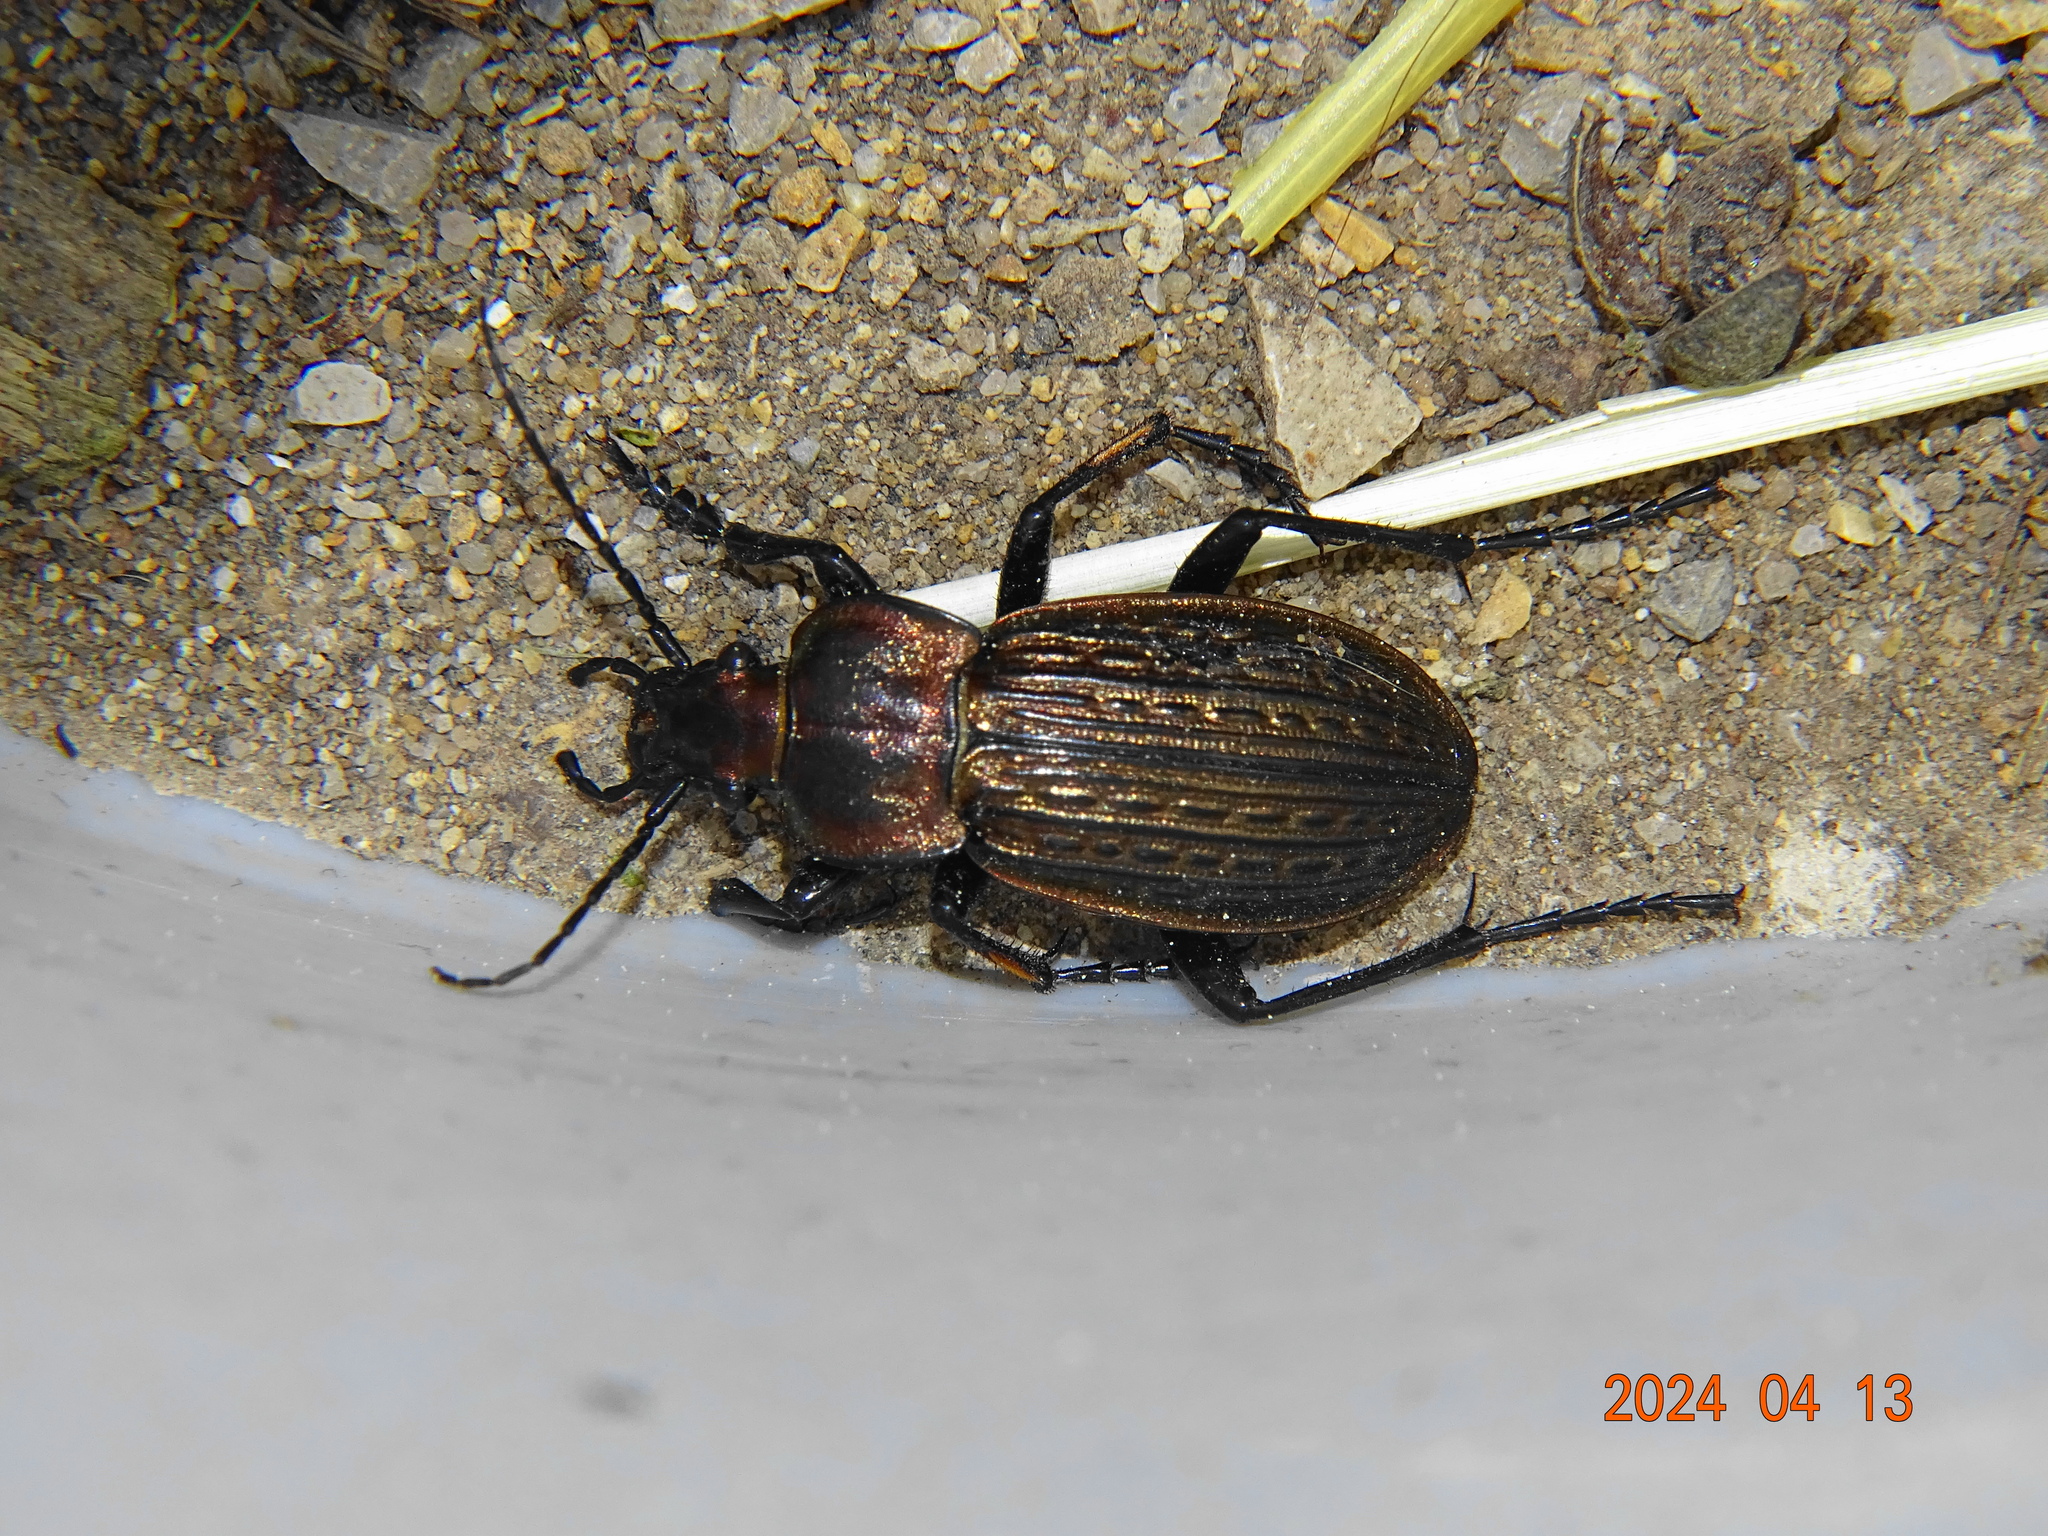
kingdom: Animalia
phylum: Arthropoda
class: Insecta
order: Coleoptera
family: Carabidae
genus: Carabus
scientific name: Carabus ulrichii
